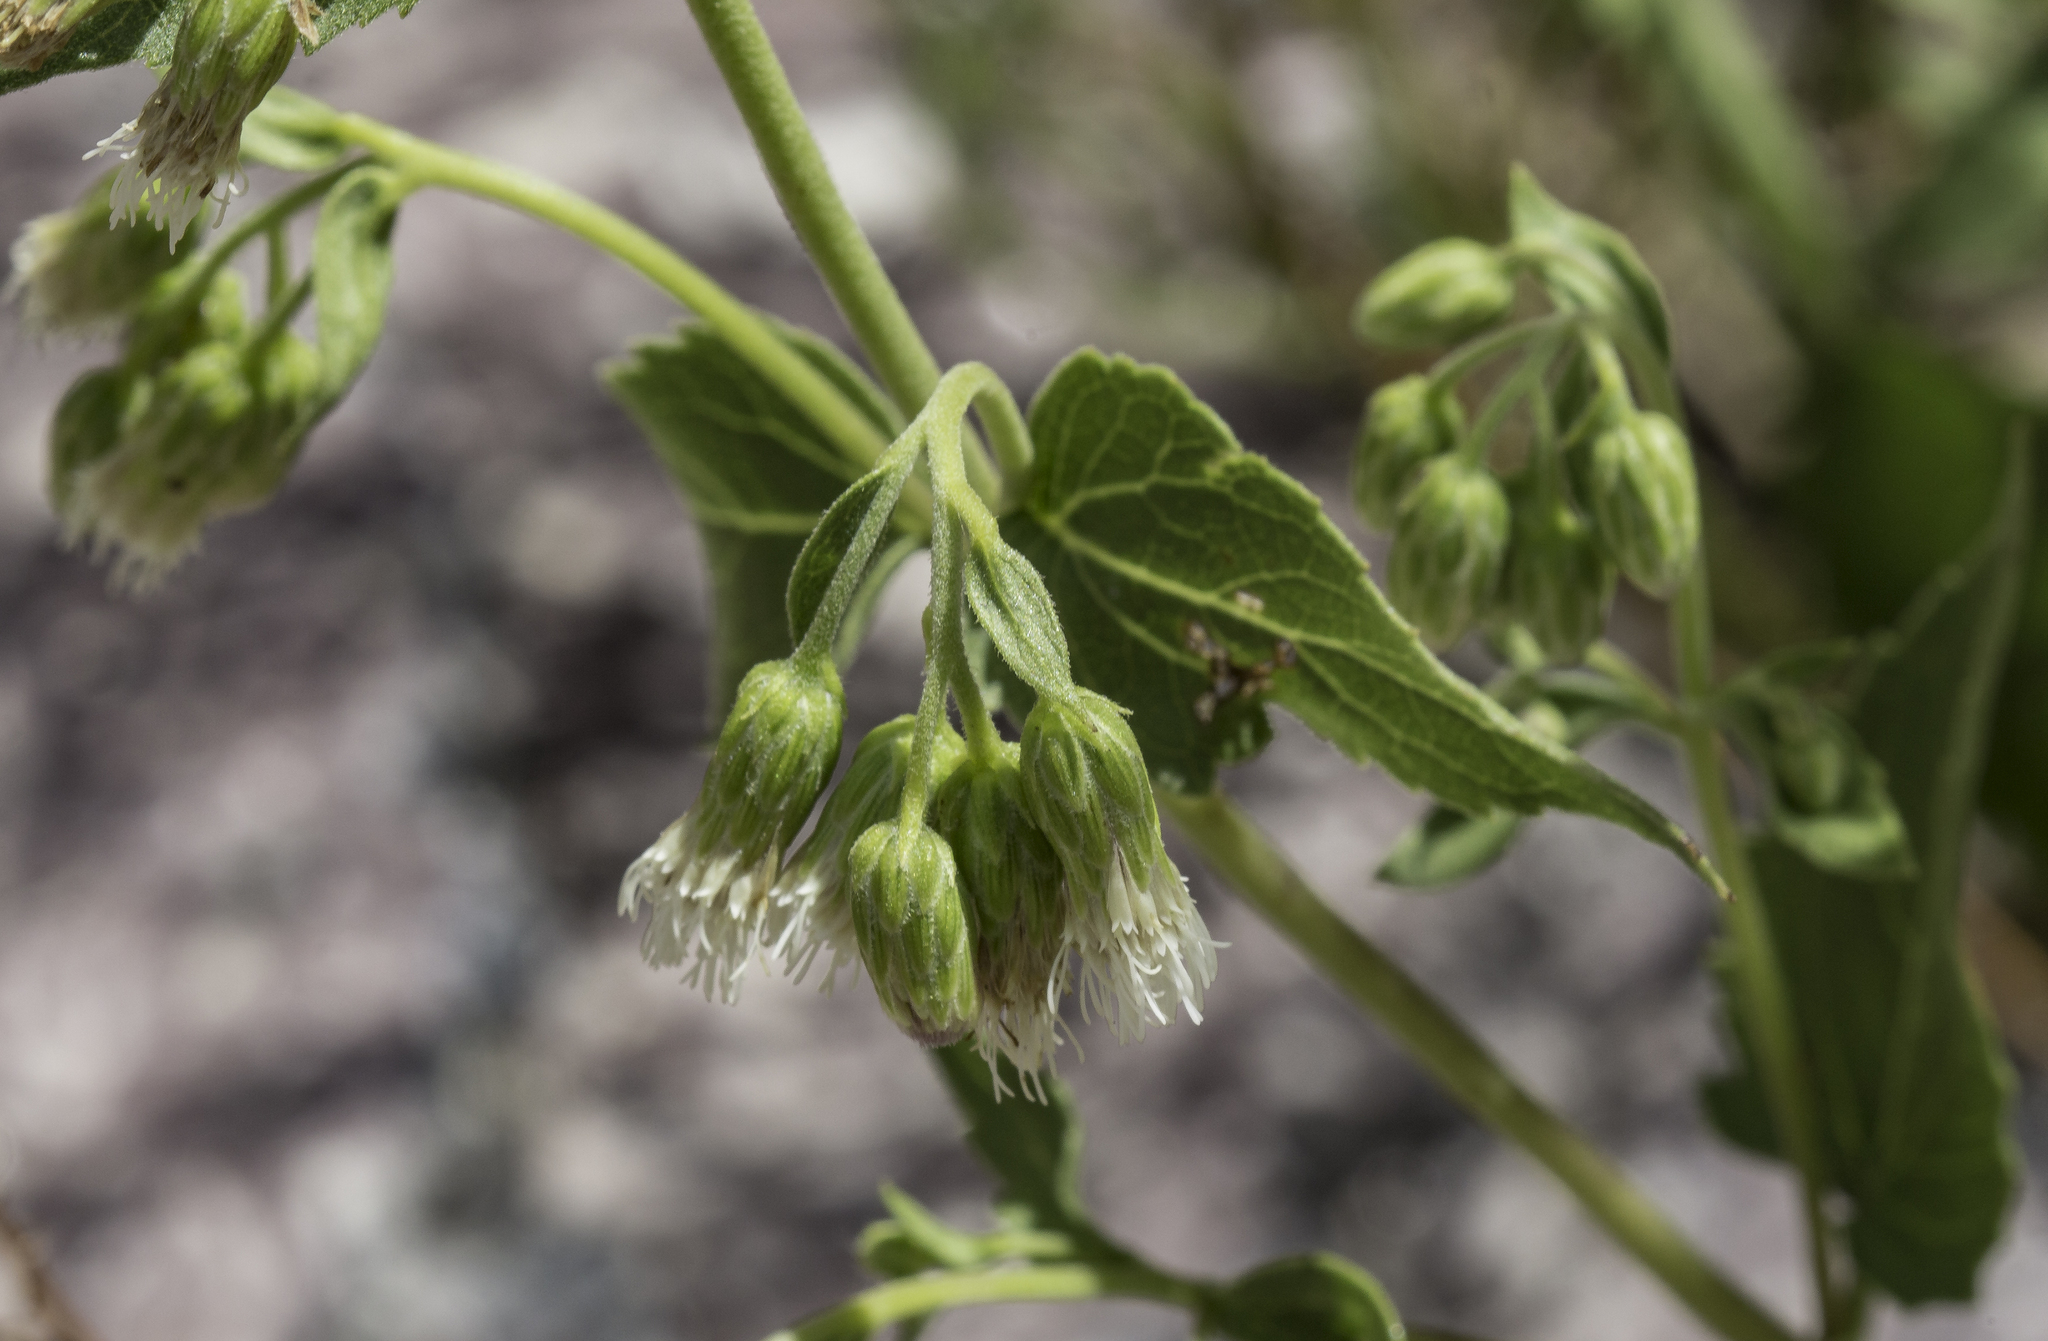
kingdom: Plantae
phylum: Tracheophyta
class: Magnoliopsida
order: Asterales
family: Asteraceae
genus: Brickelliastrum
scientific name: Brickelliastrum fendleri
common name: Fendler's-brickellbush
